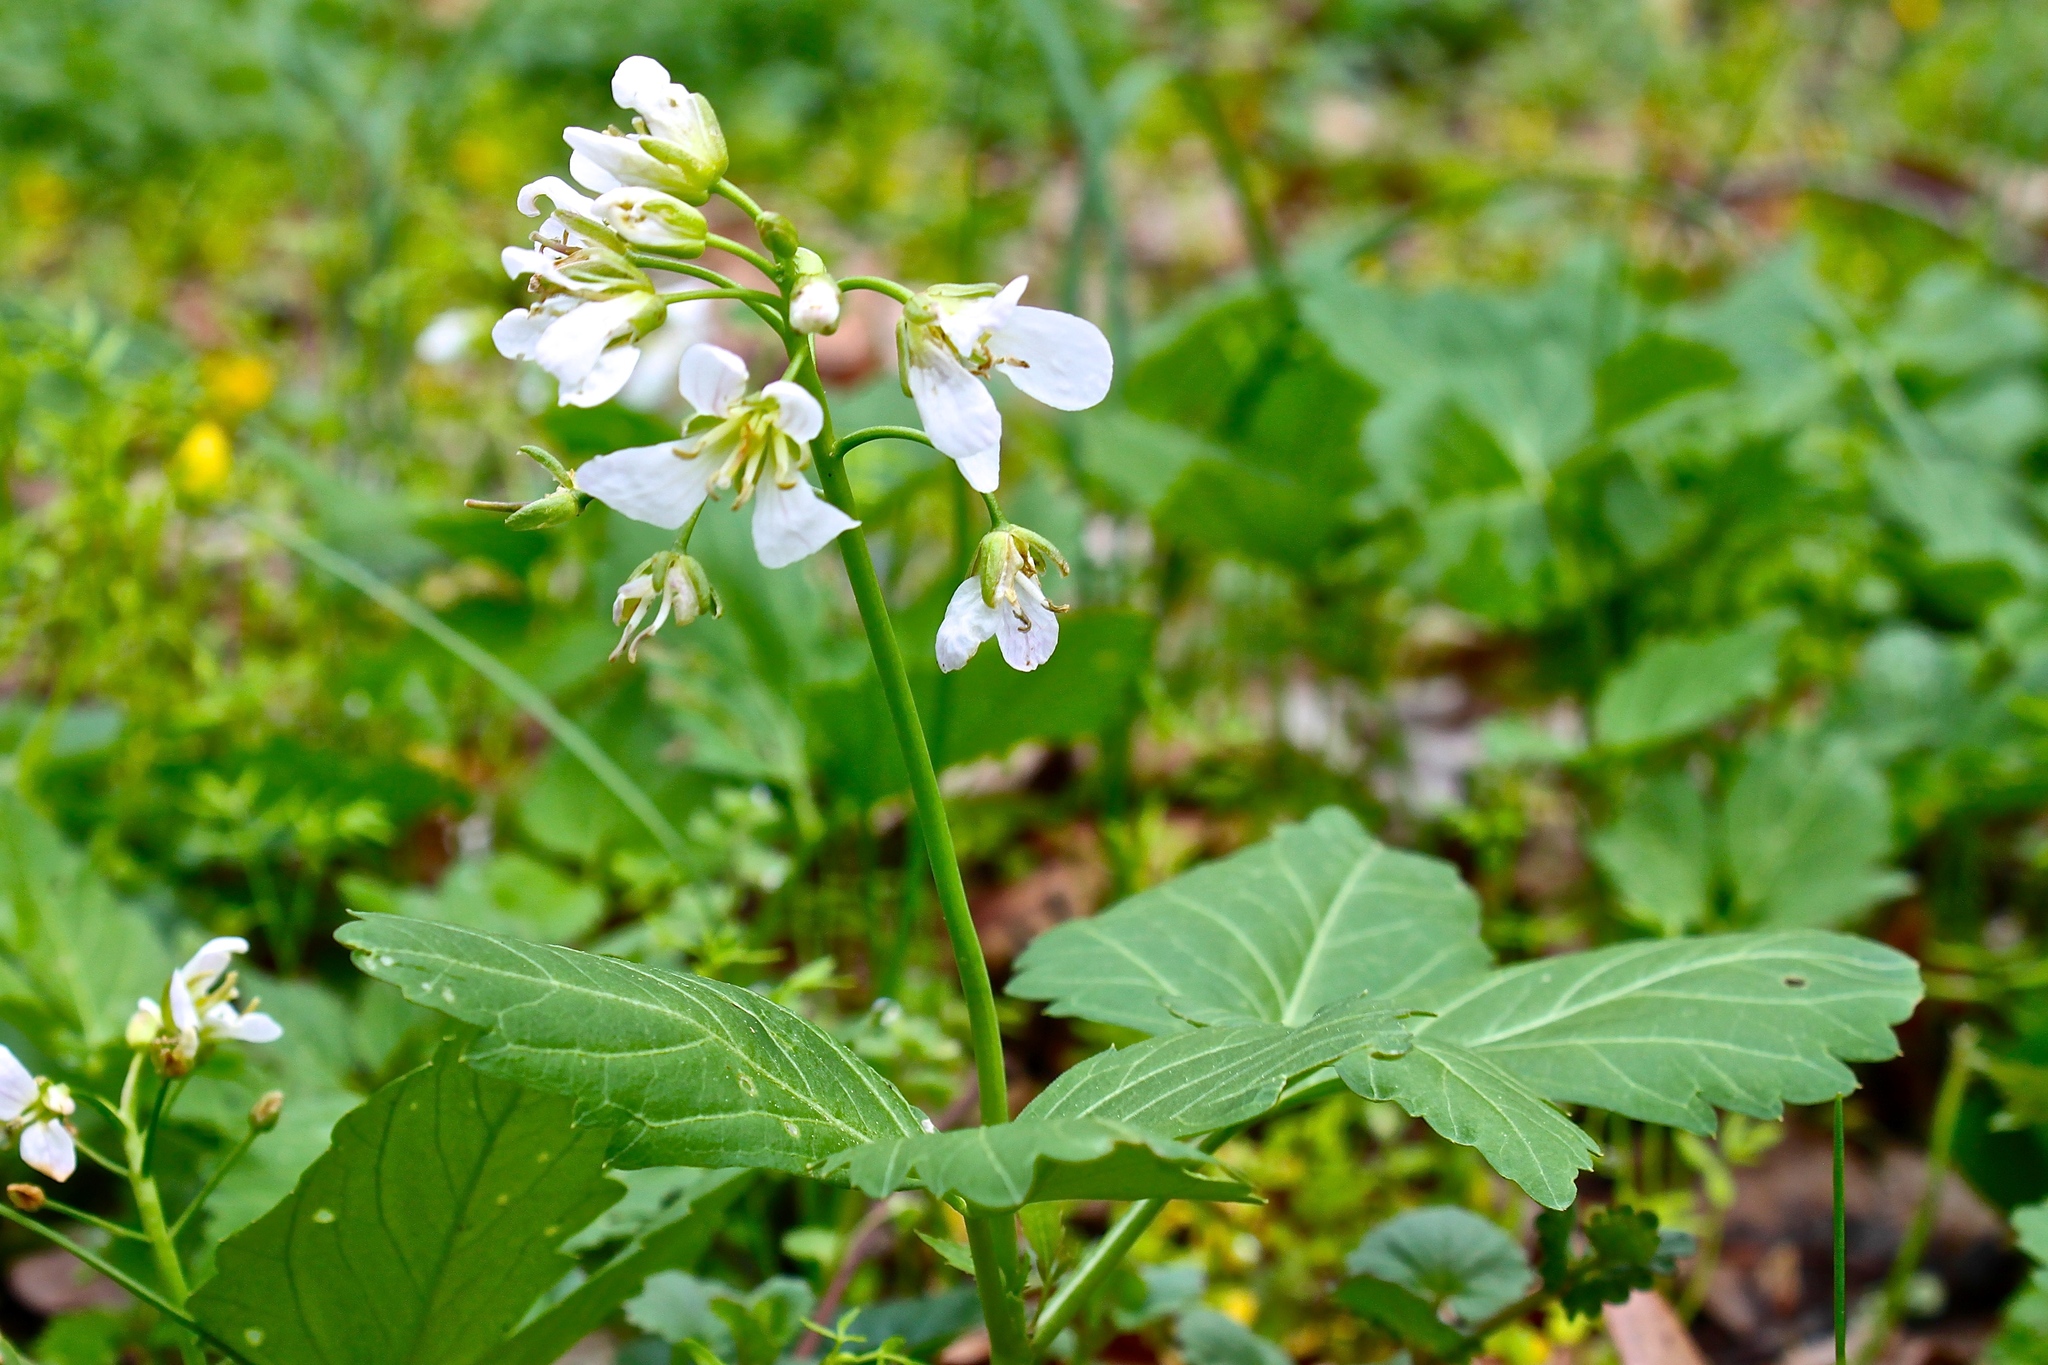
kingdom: Plantae
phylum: Tracheophyta
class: Magnoliopsida
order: Brassicales
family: Brassicaceae
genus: Cardamine
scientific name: Cardamine diphylla
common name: Broad-leaved toothwort
